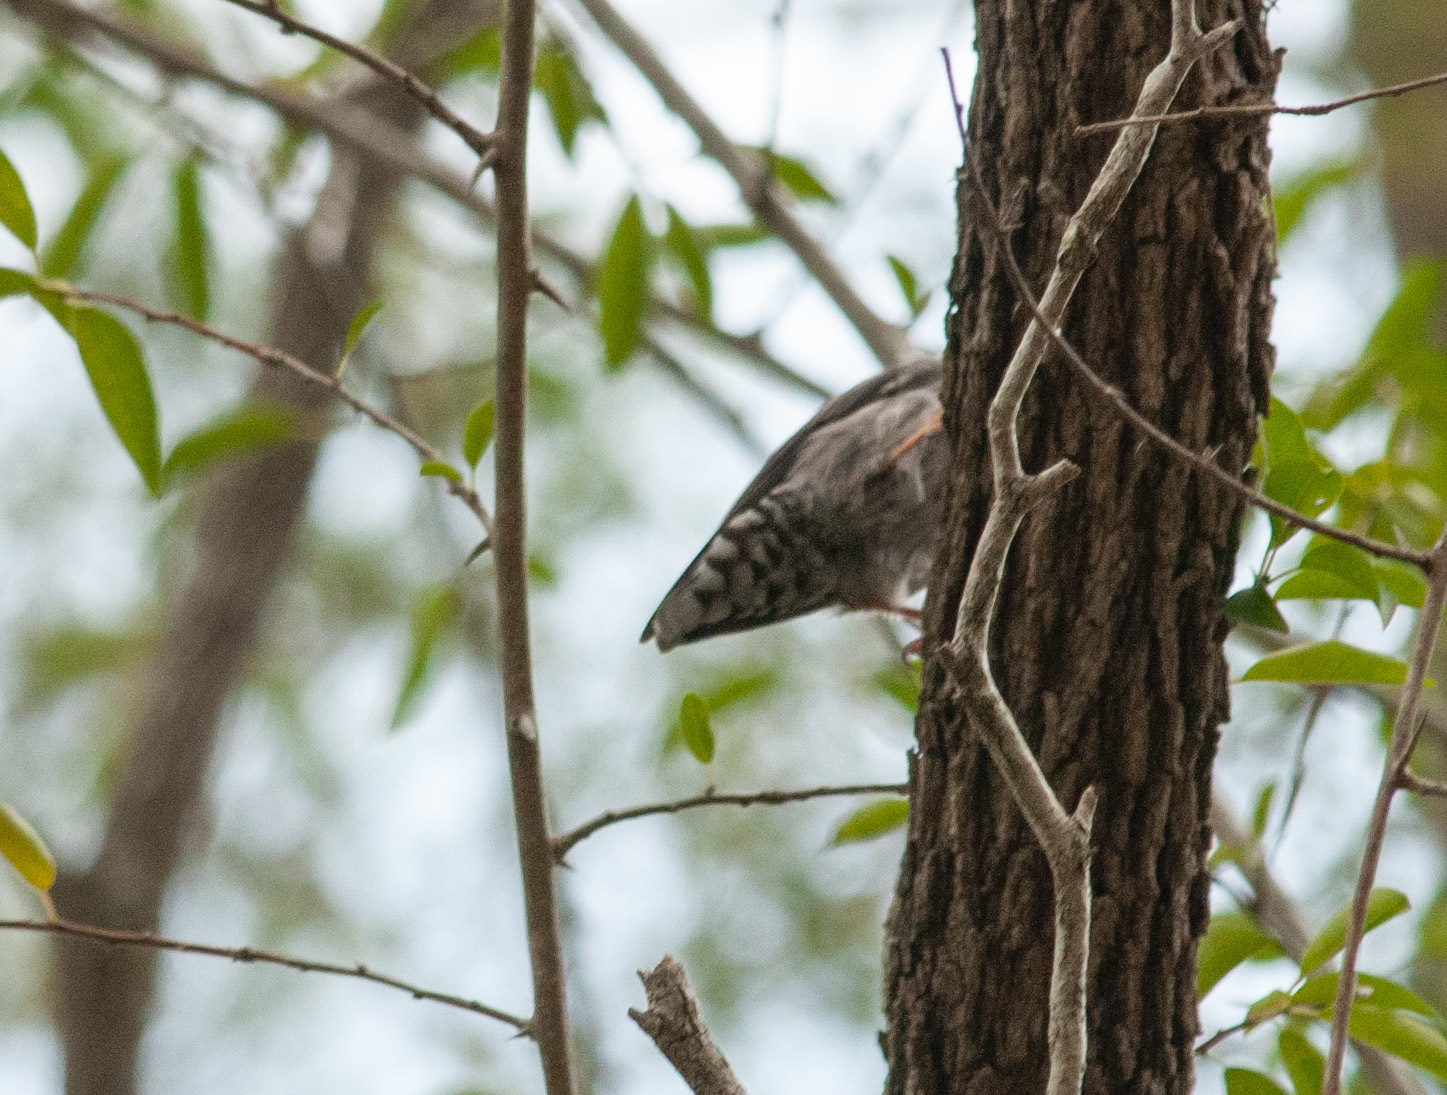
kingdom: Animalia
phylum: Chordata
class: Aves
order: Passeriformes
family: Neosittidae
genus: Daphoenositta
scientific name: Daphoenositta chrysoptera
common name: Varied sittella
